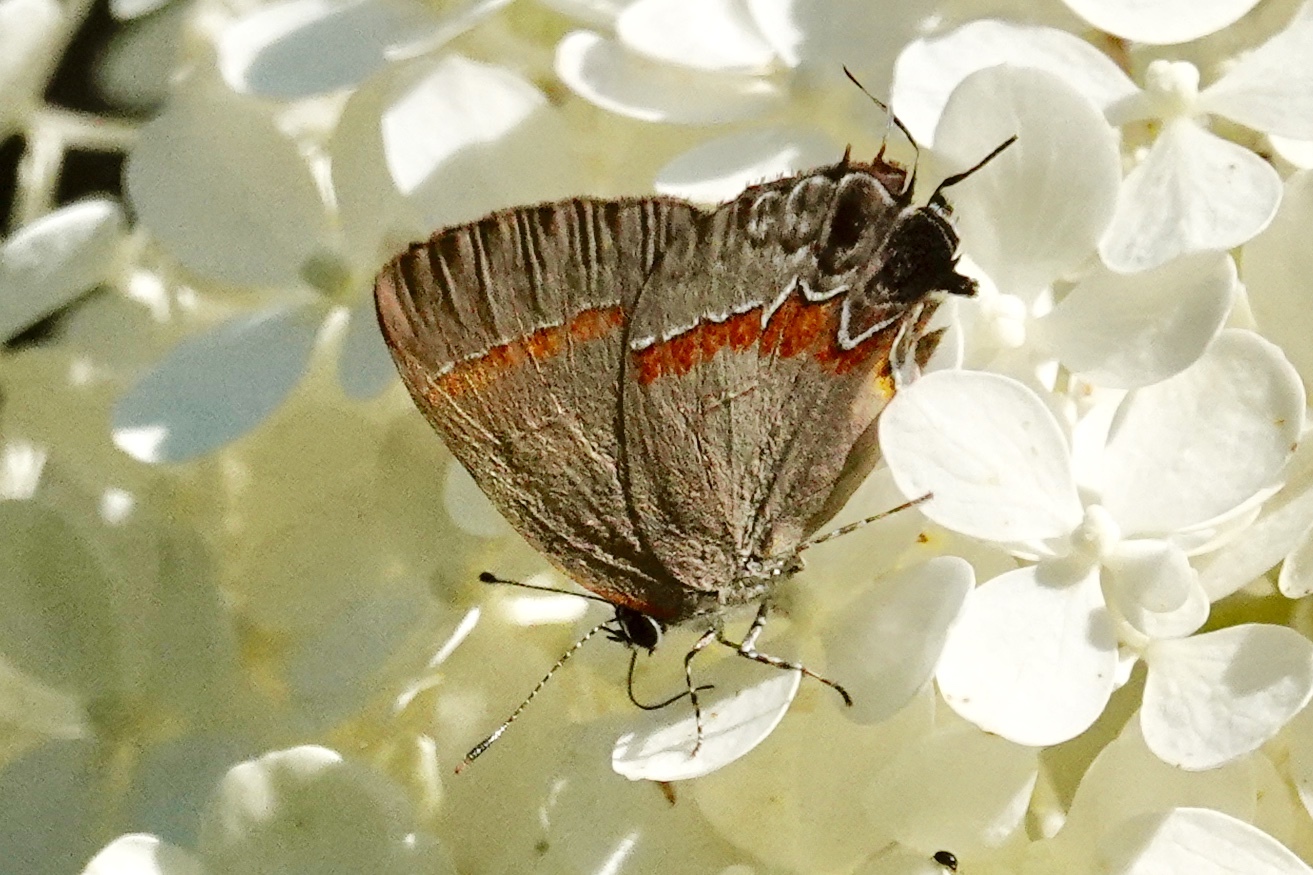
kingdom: Animalia
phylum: Arthropoda
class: Insecta
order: Lepidoptera
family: Lycaenidae
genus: Calycopis
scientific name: Calycopis cecrops
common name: Red-banded hairstreak
